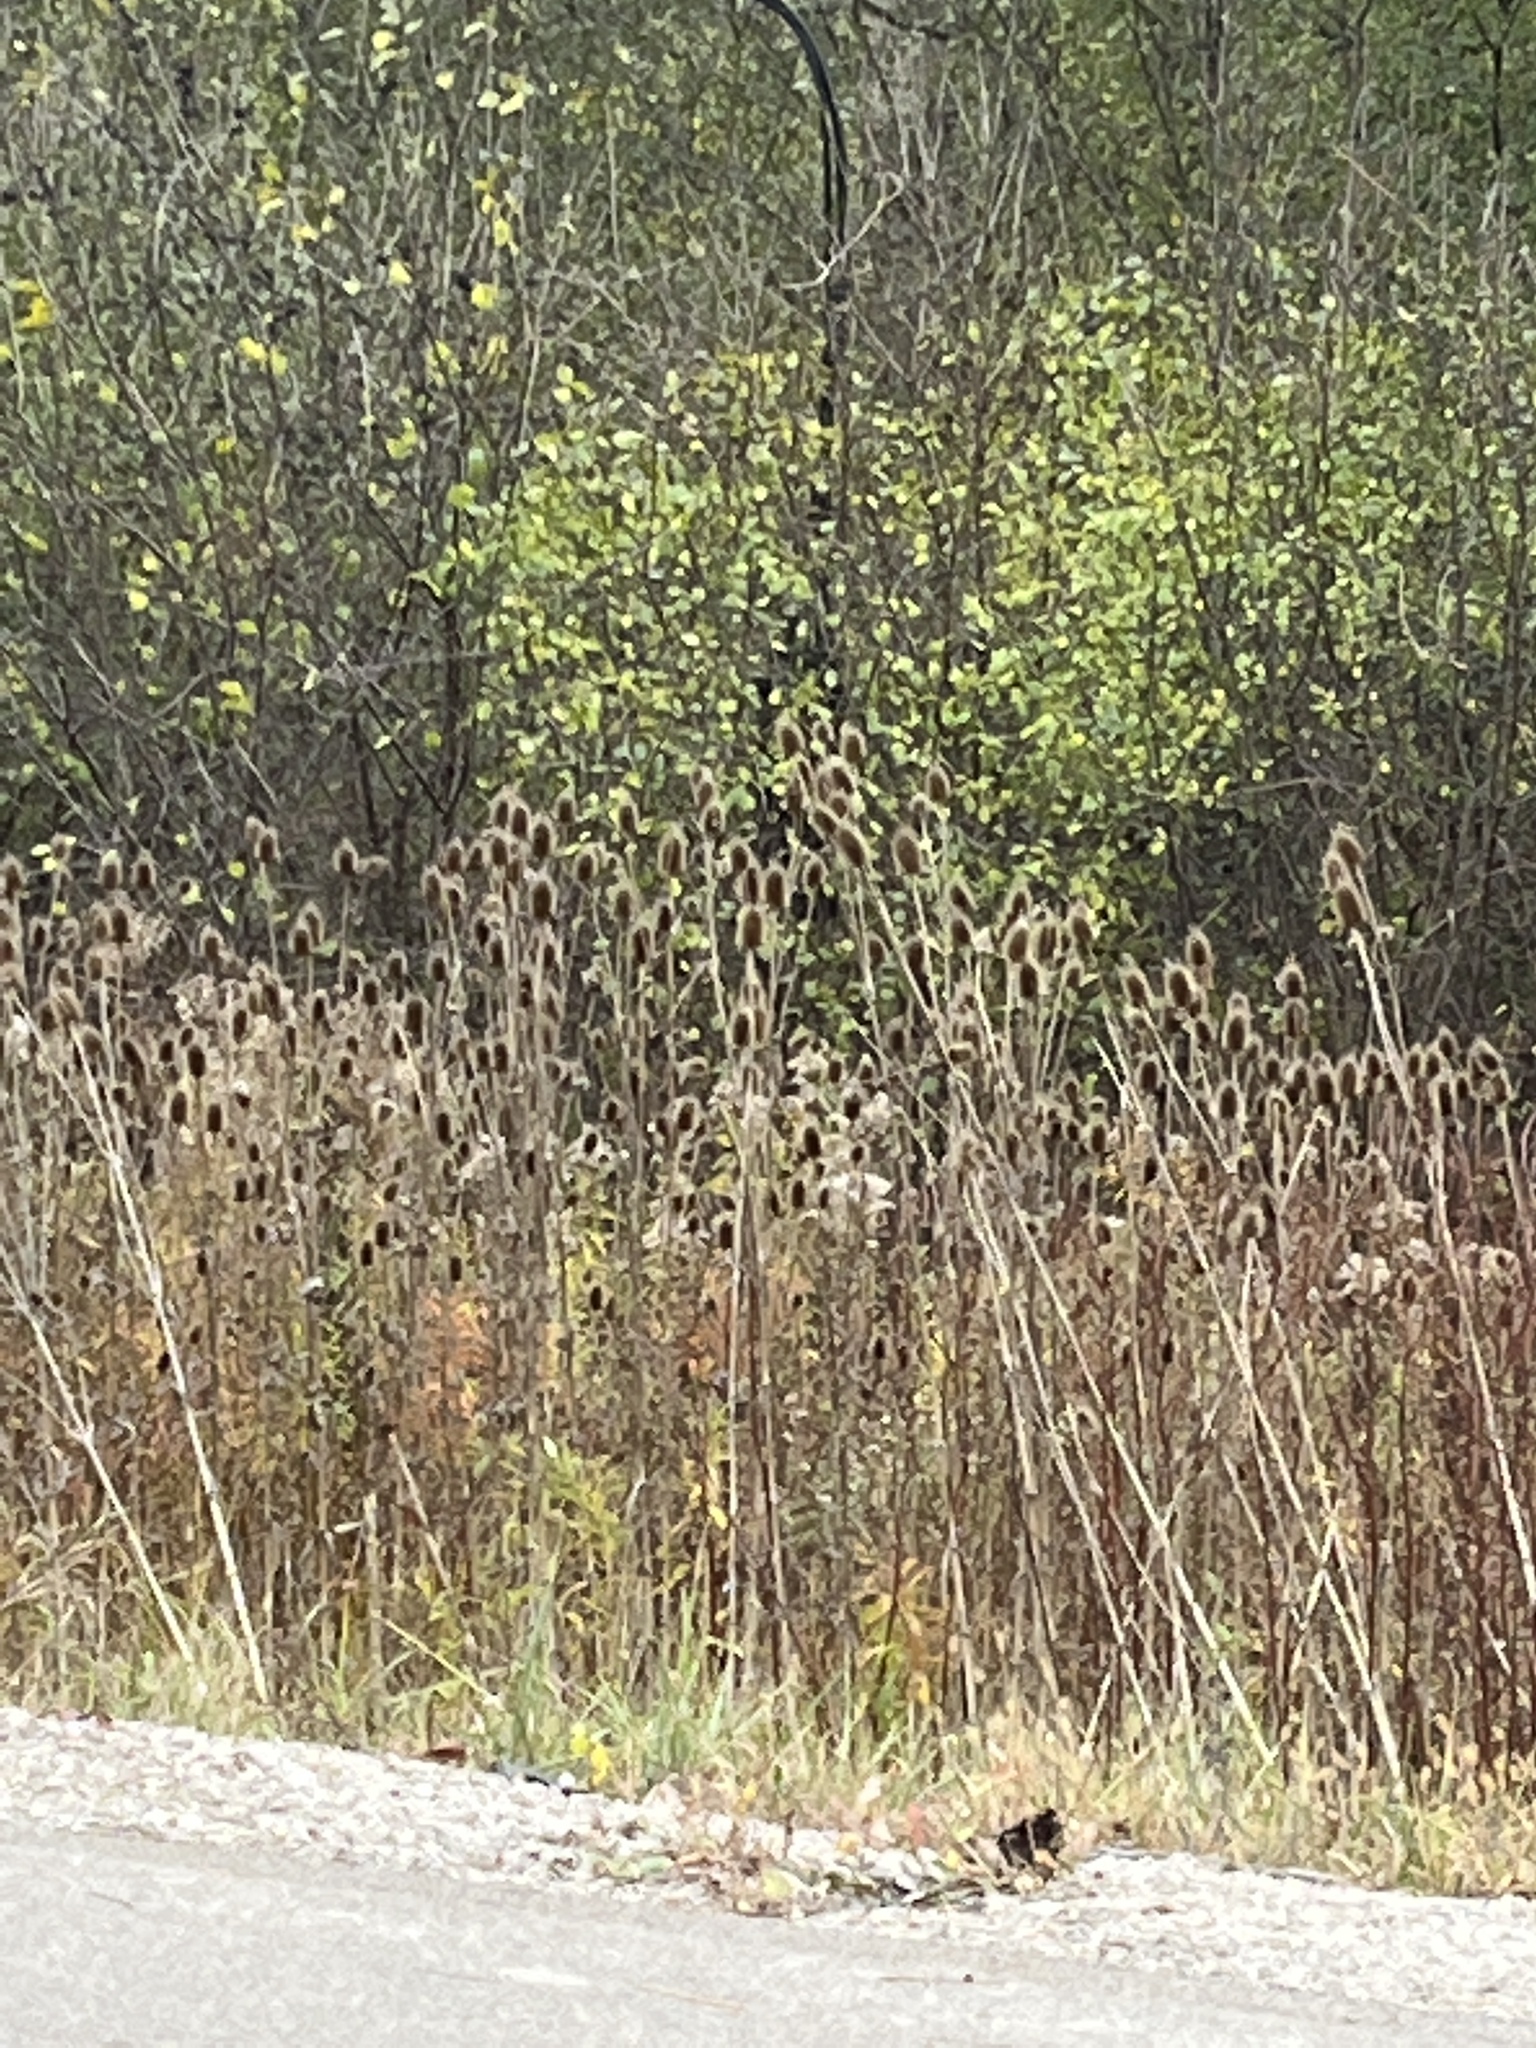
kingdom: Plantae
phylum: Tracheophyta
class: Magnoliopsida
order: Dipsacales
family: Caprifoliaceae
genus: Dipsacus
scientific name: Dipsacus laciniatus
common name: Cut-leaved teasel
